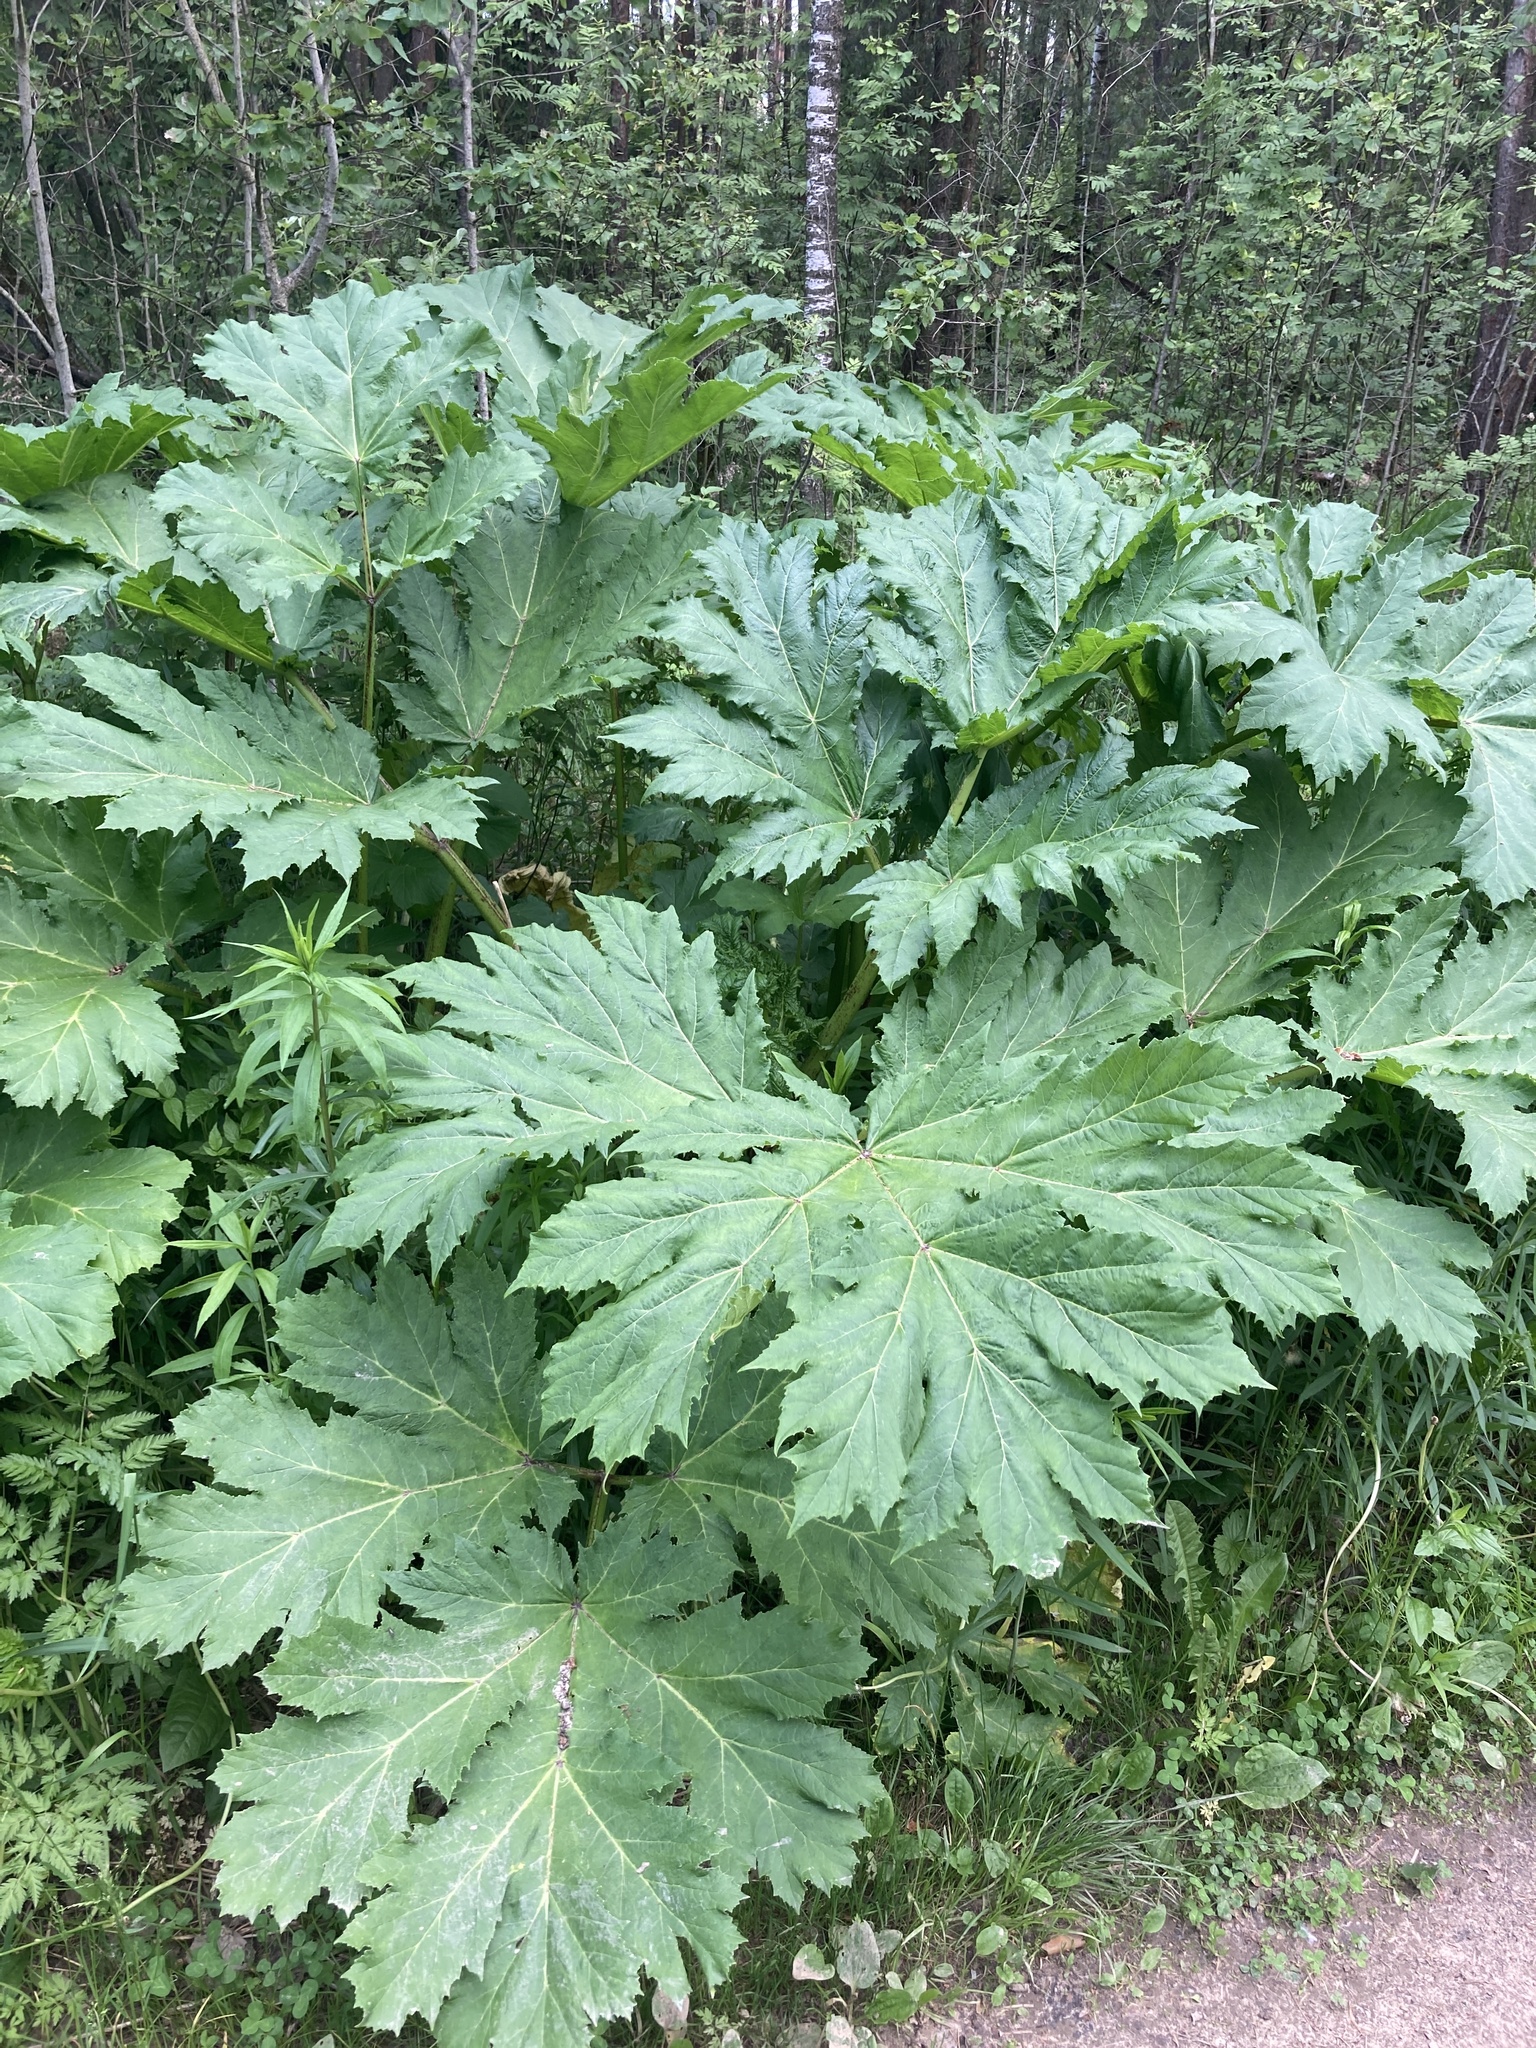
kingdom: Plantae
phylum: Tracheophyta
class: Magnoliopsida
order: Apiales
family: Apiaceae
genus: Heracleum
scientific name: Heracleum sosnowskyi
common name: Sosnowsky's hogweed
